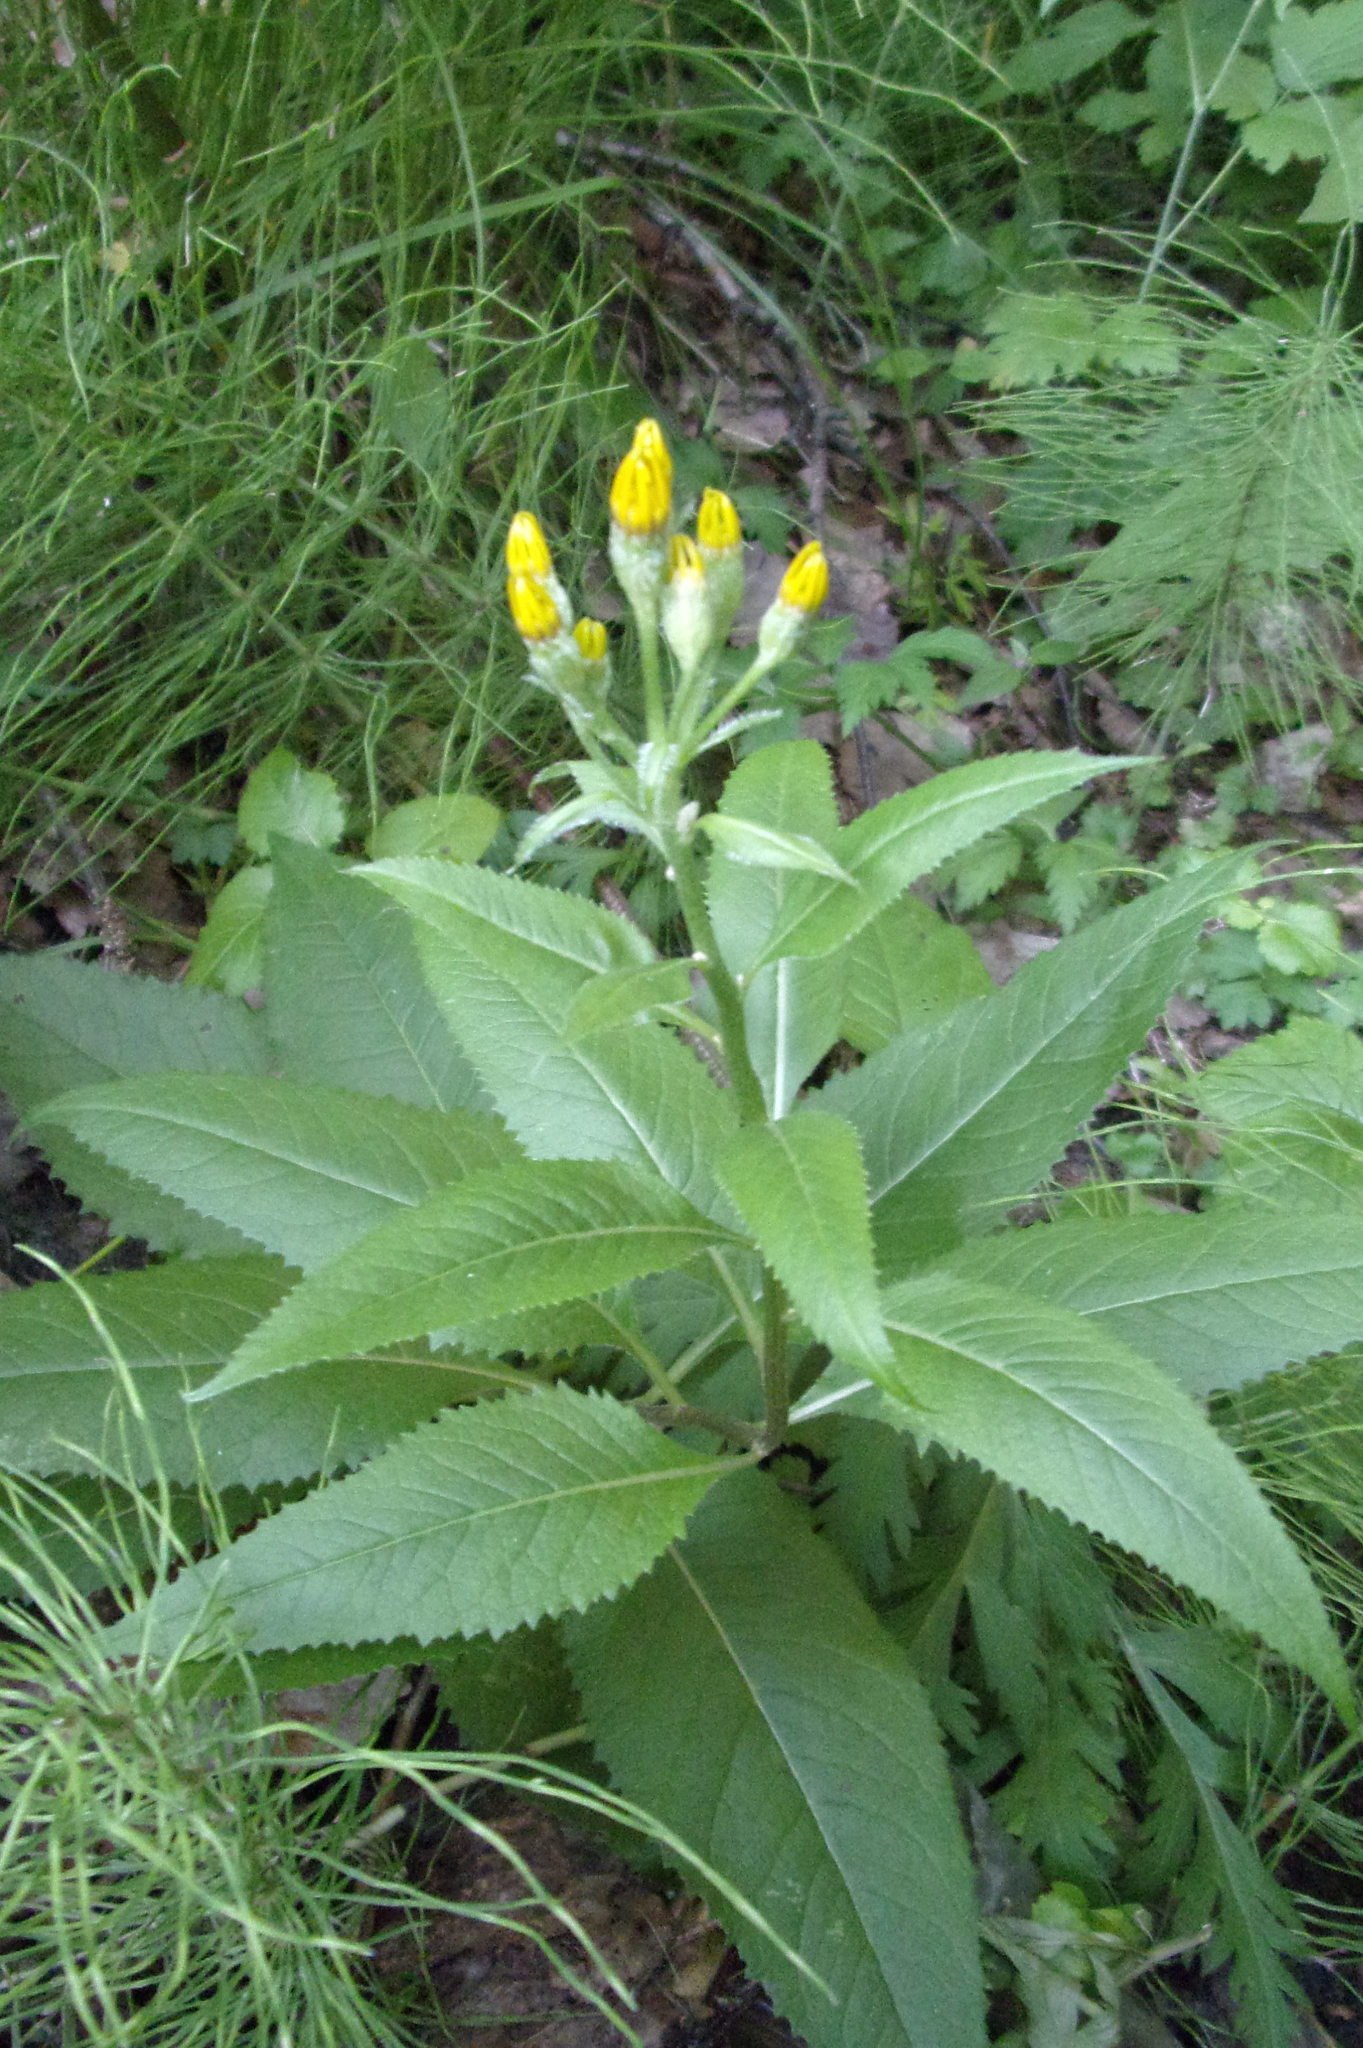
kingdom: Plantae
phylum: Tracheophyta
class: Magnoliopsida
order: Asterales
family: Asteraceae
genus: Senecio
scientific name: Senecio nemorensis
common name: Alpine ragwort
